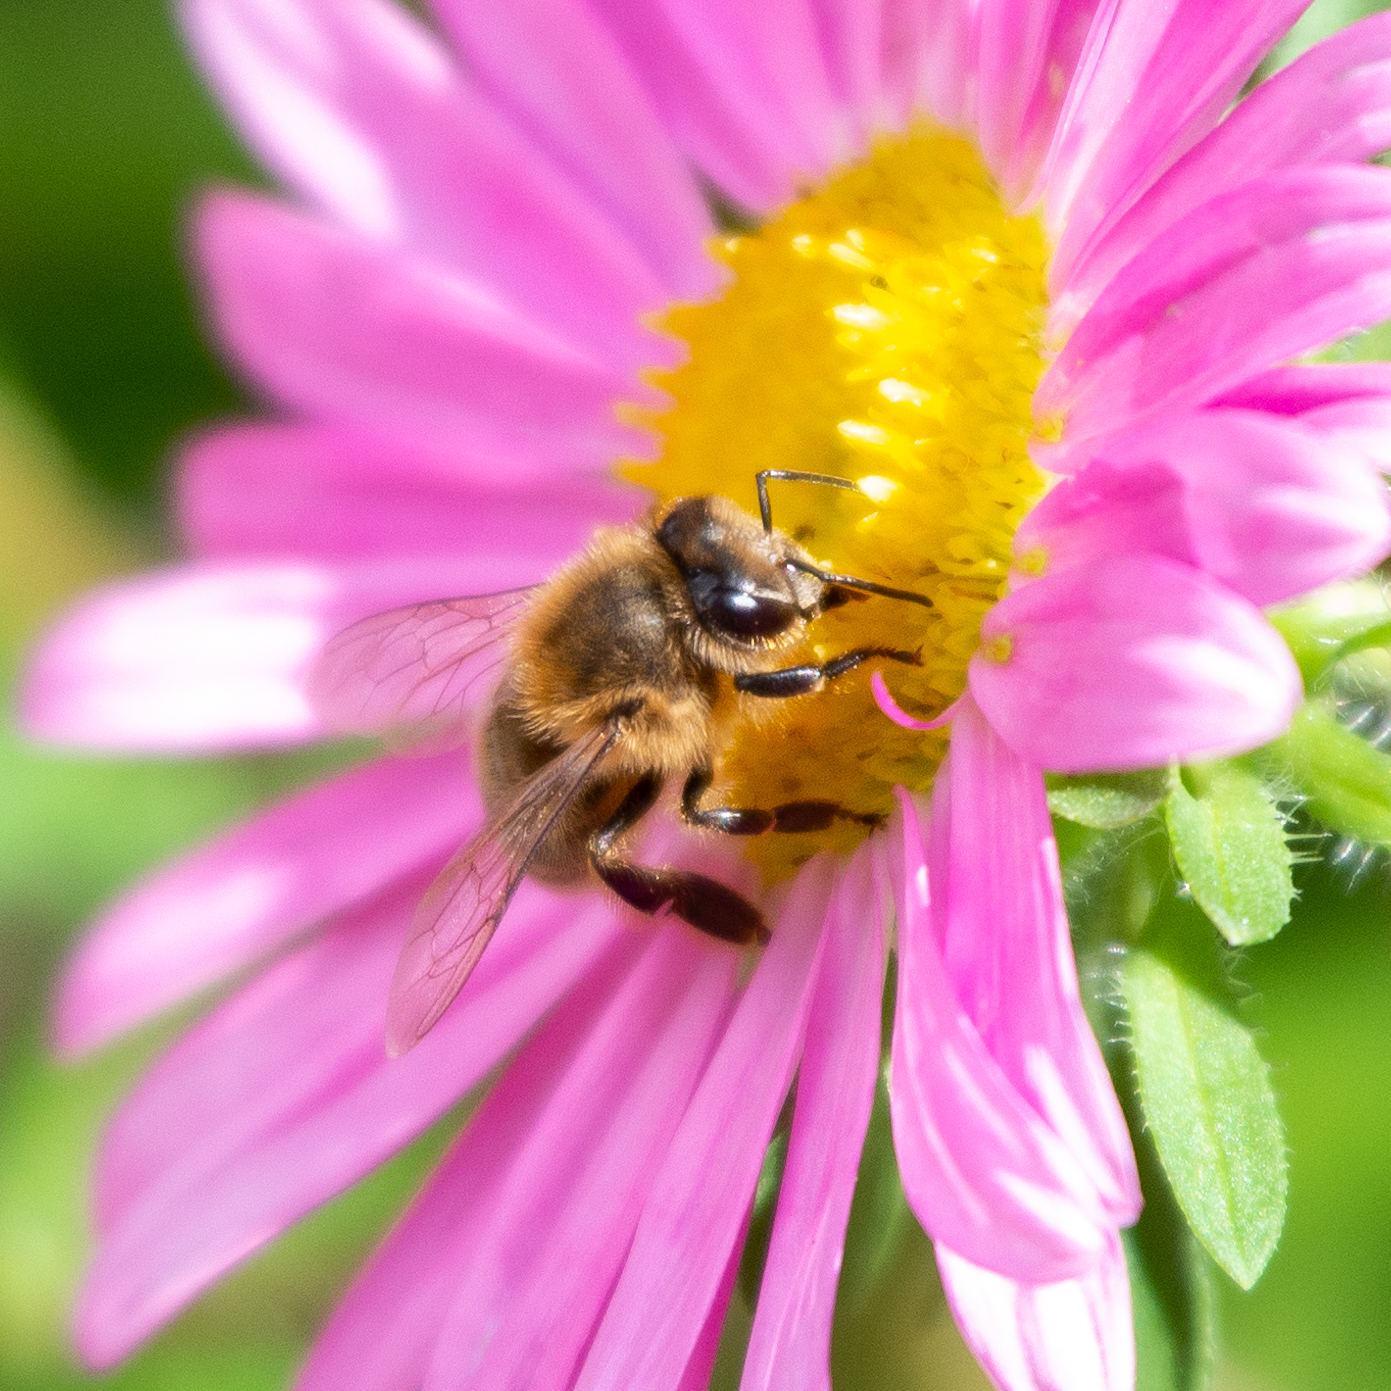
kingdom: Animalia
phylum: Arthropoda
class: Insecta
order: Hymenoptera
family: Apidae
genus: Apis
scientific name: Apis mellifera
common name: Honey bee
